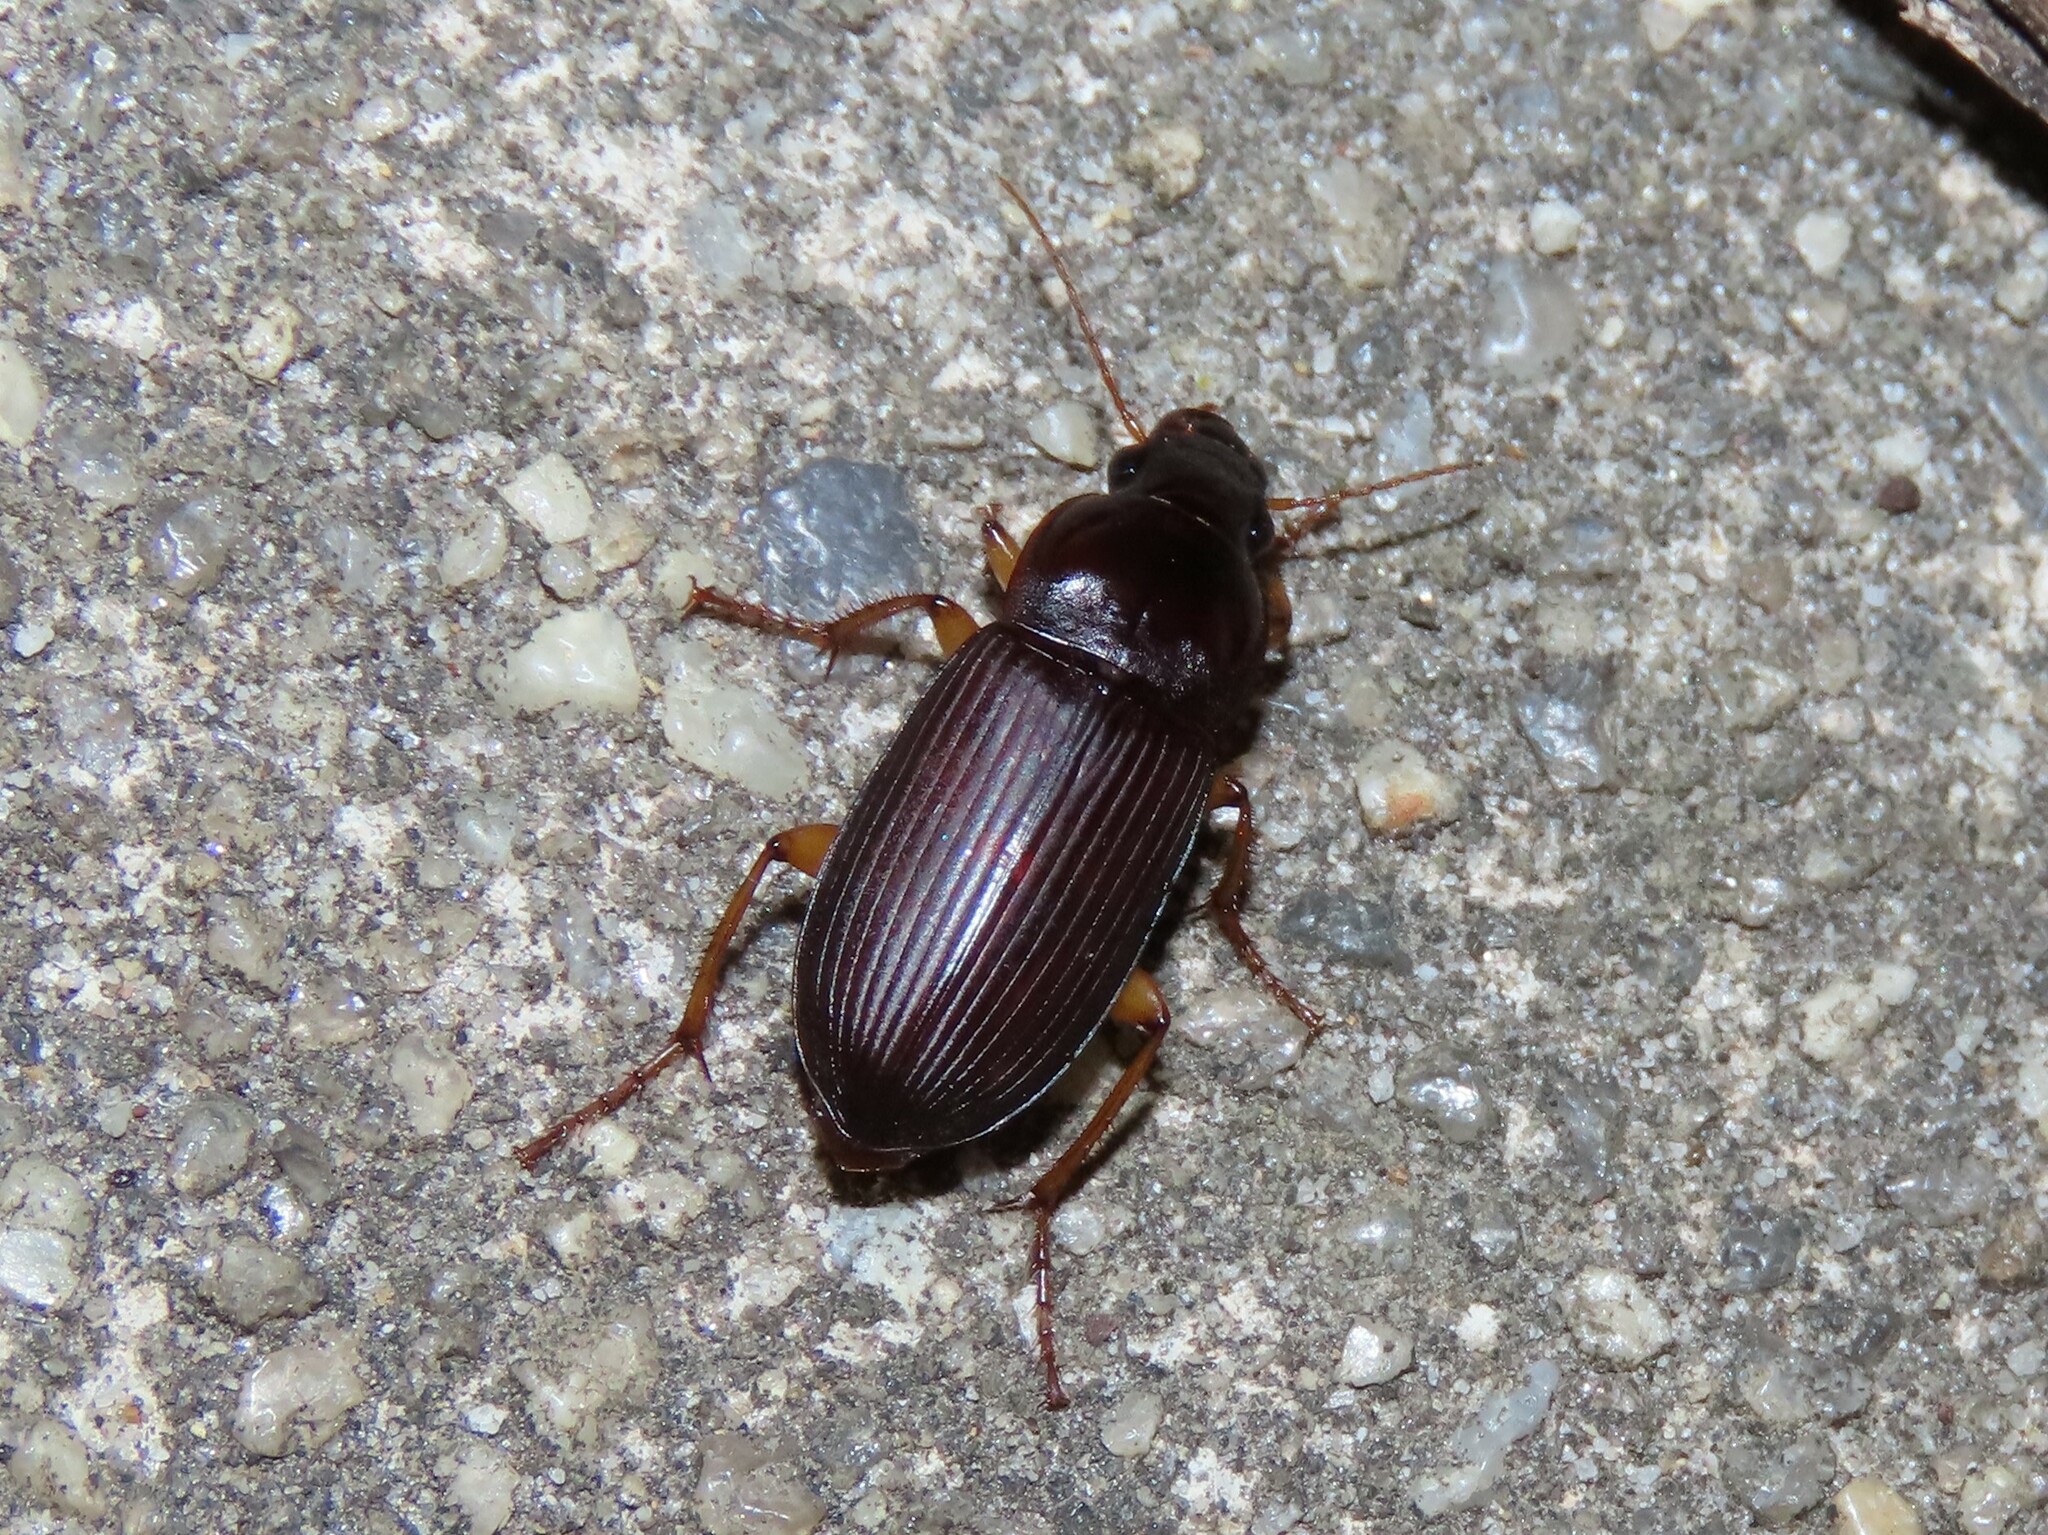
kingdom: Animalia
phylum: Arthropoda
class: Insecta
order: Coleoptera
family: Carabidae
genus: Harpalus
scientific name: Harpalus pensylvanicus
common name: Pennsylvania dingy ground beetle
